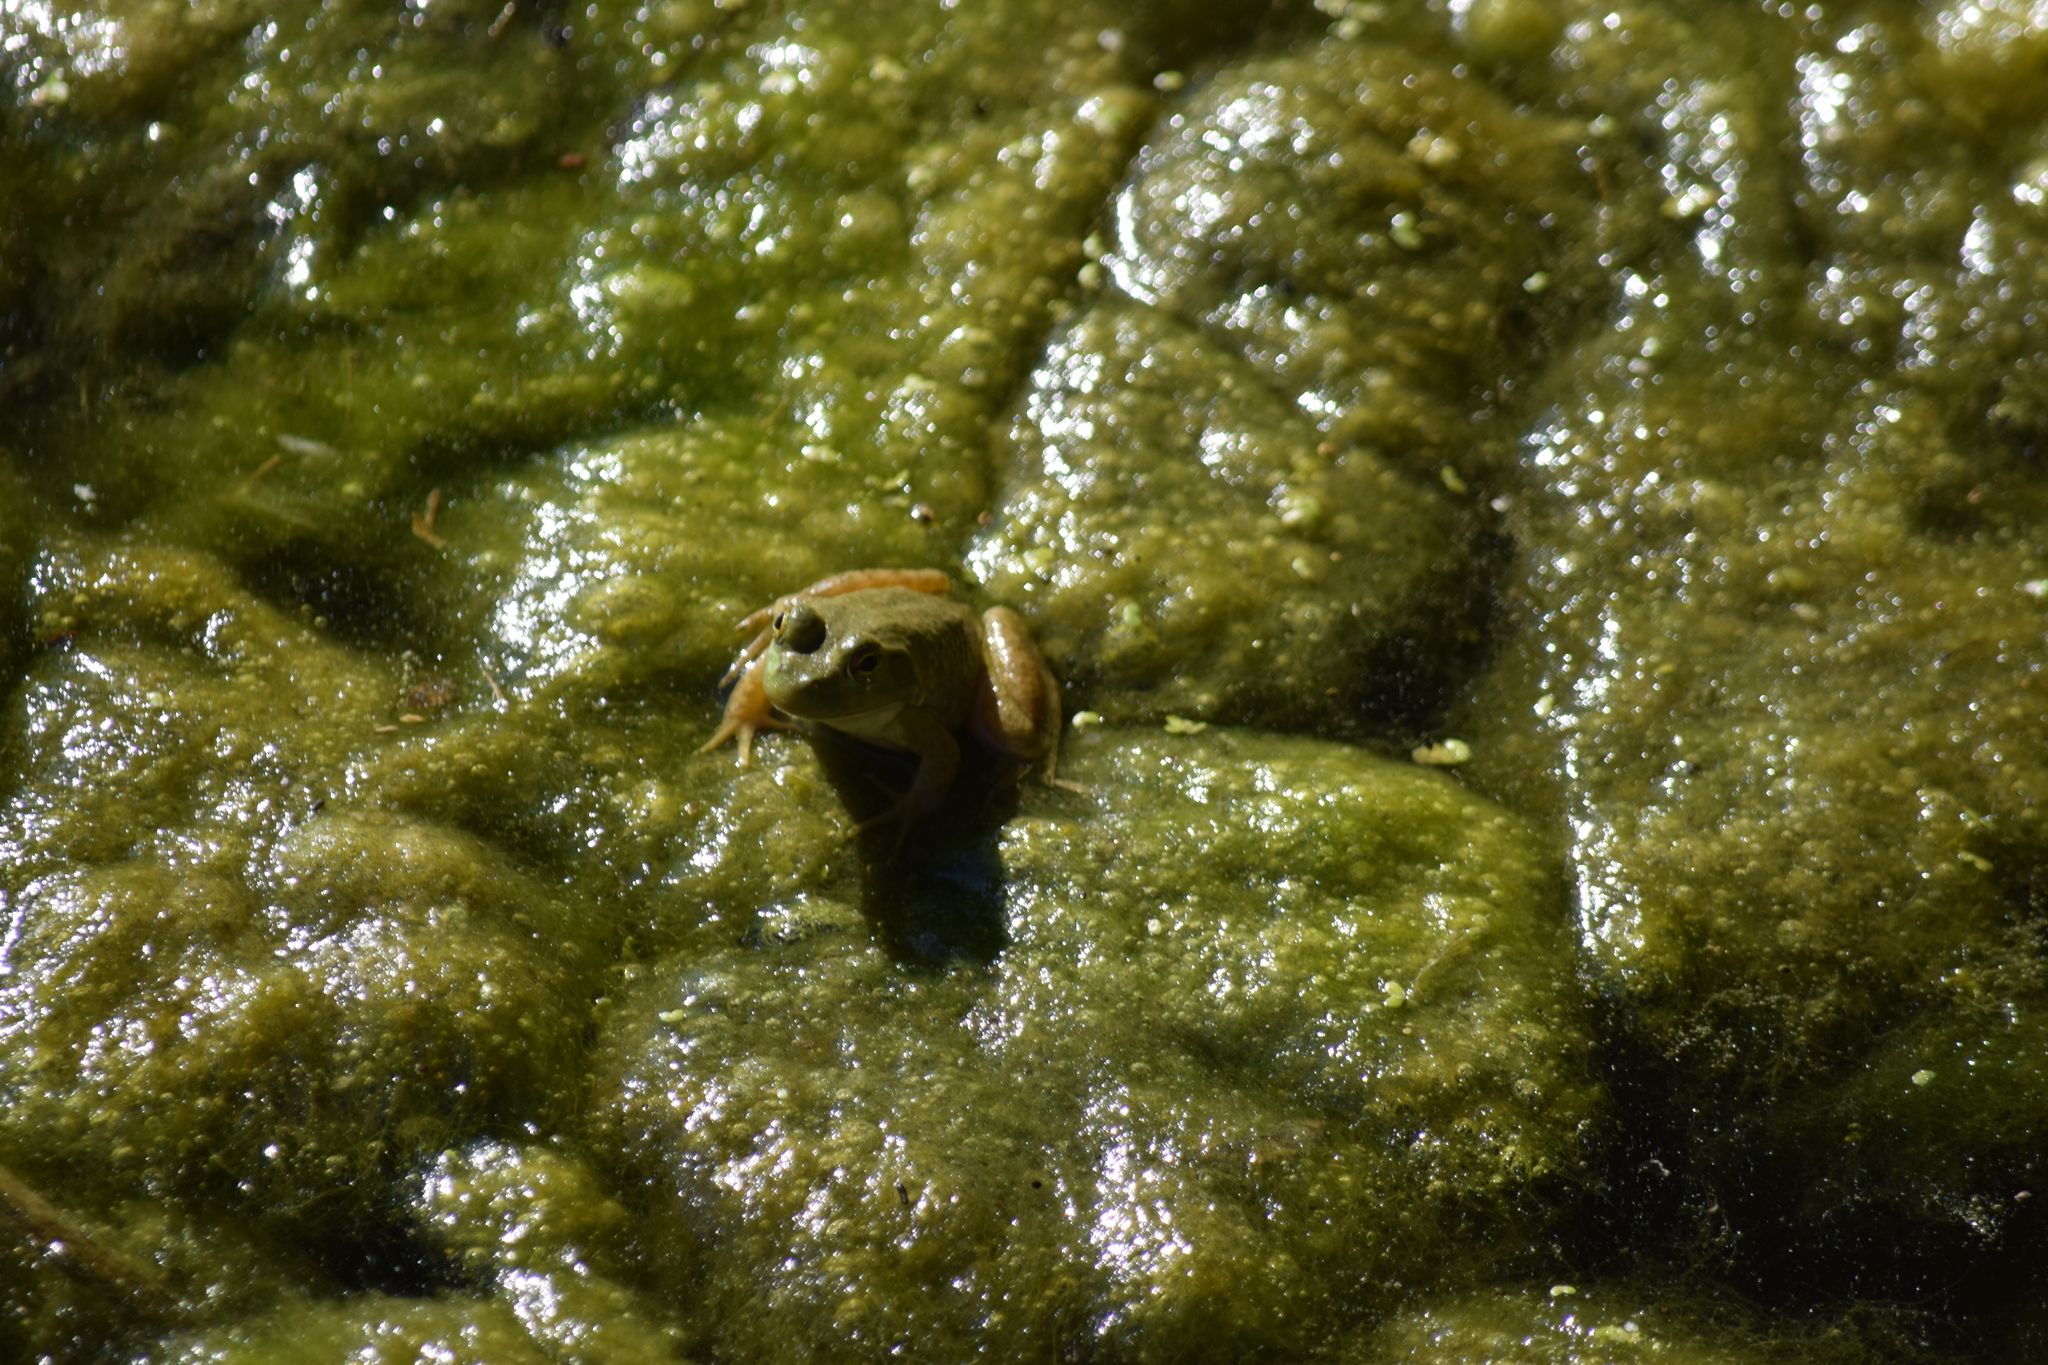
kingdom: Animalia
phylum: Chordata
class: Amphibia
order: Anura
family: Ranidae
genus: Lithobates
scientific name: Lithobates catesbeianus
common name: American bullfrog
